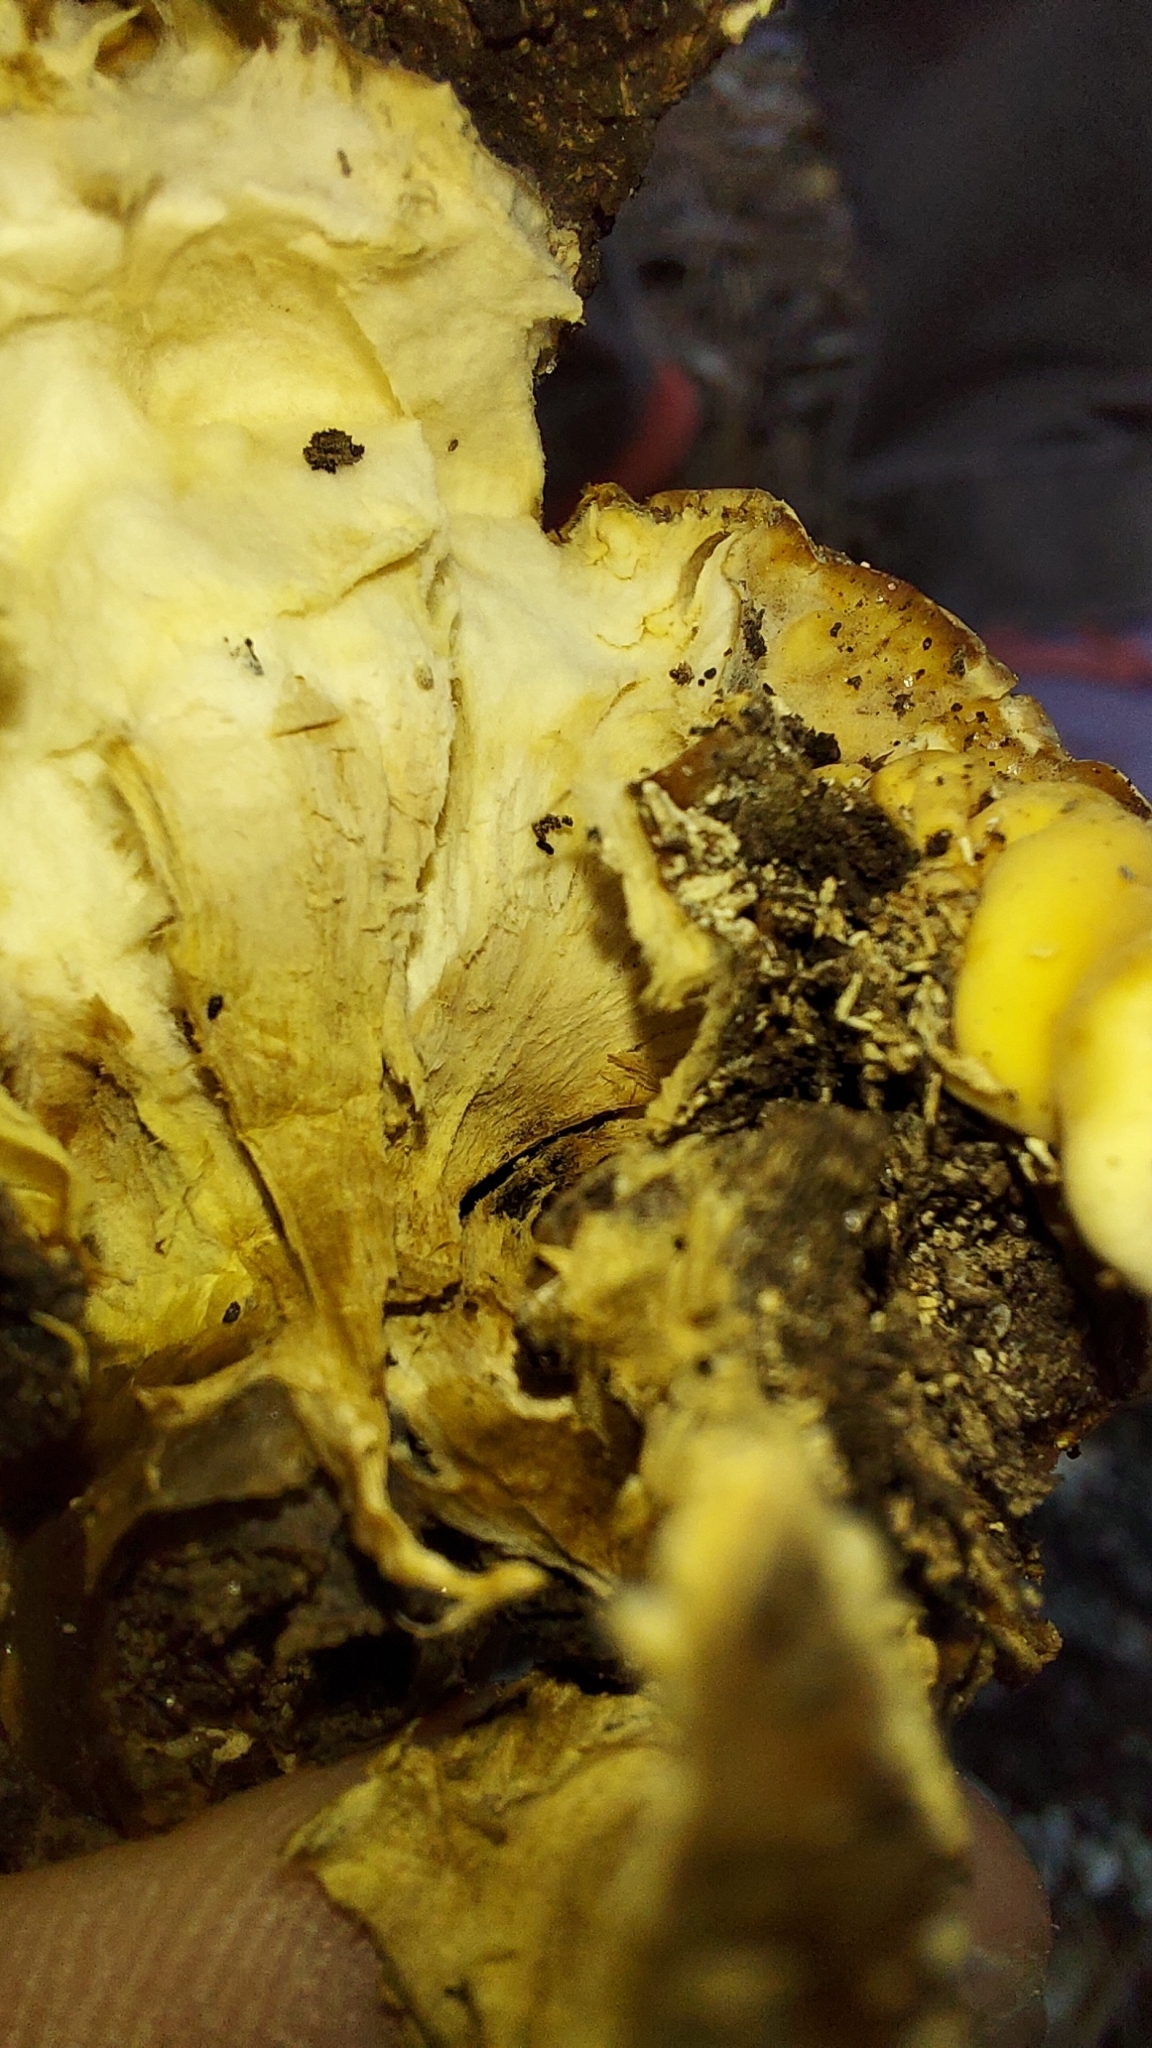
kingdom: Fungi
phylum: Ascomycota
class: Sordariomycetes
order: Hypocreales
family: Hypocreaceae
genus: Trichoderma
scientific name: Trichoderma peltatum
